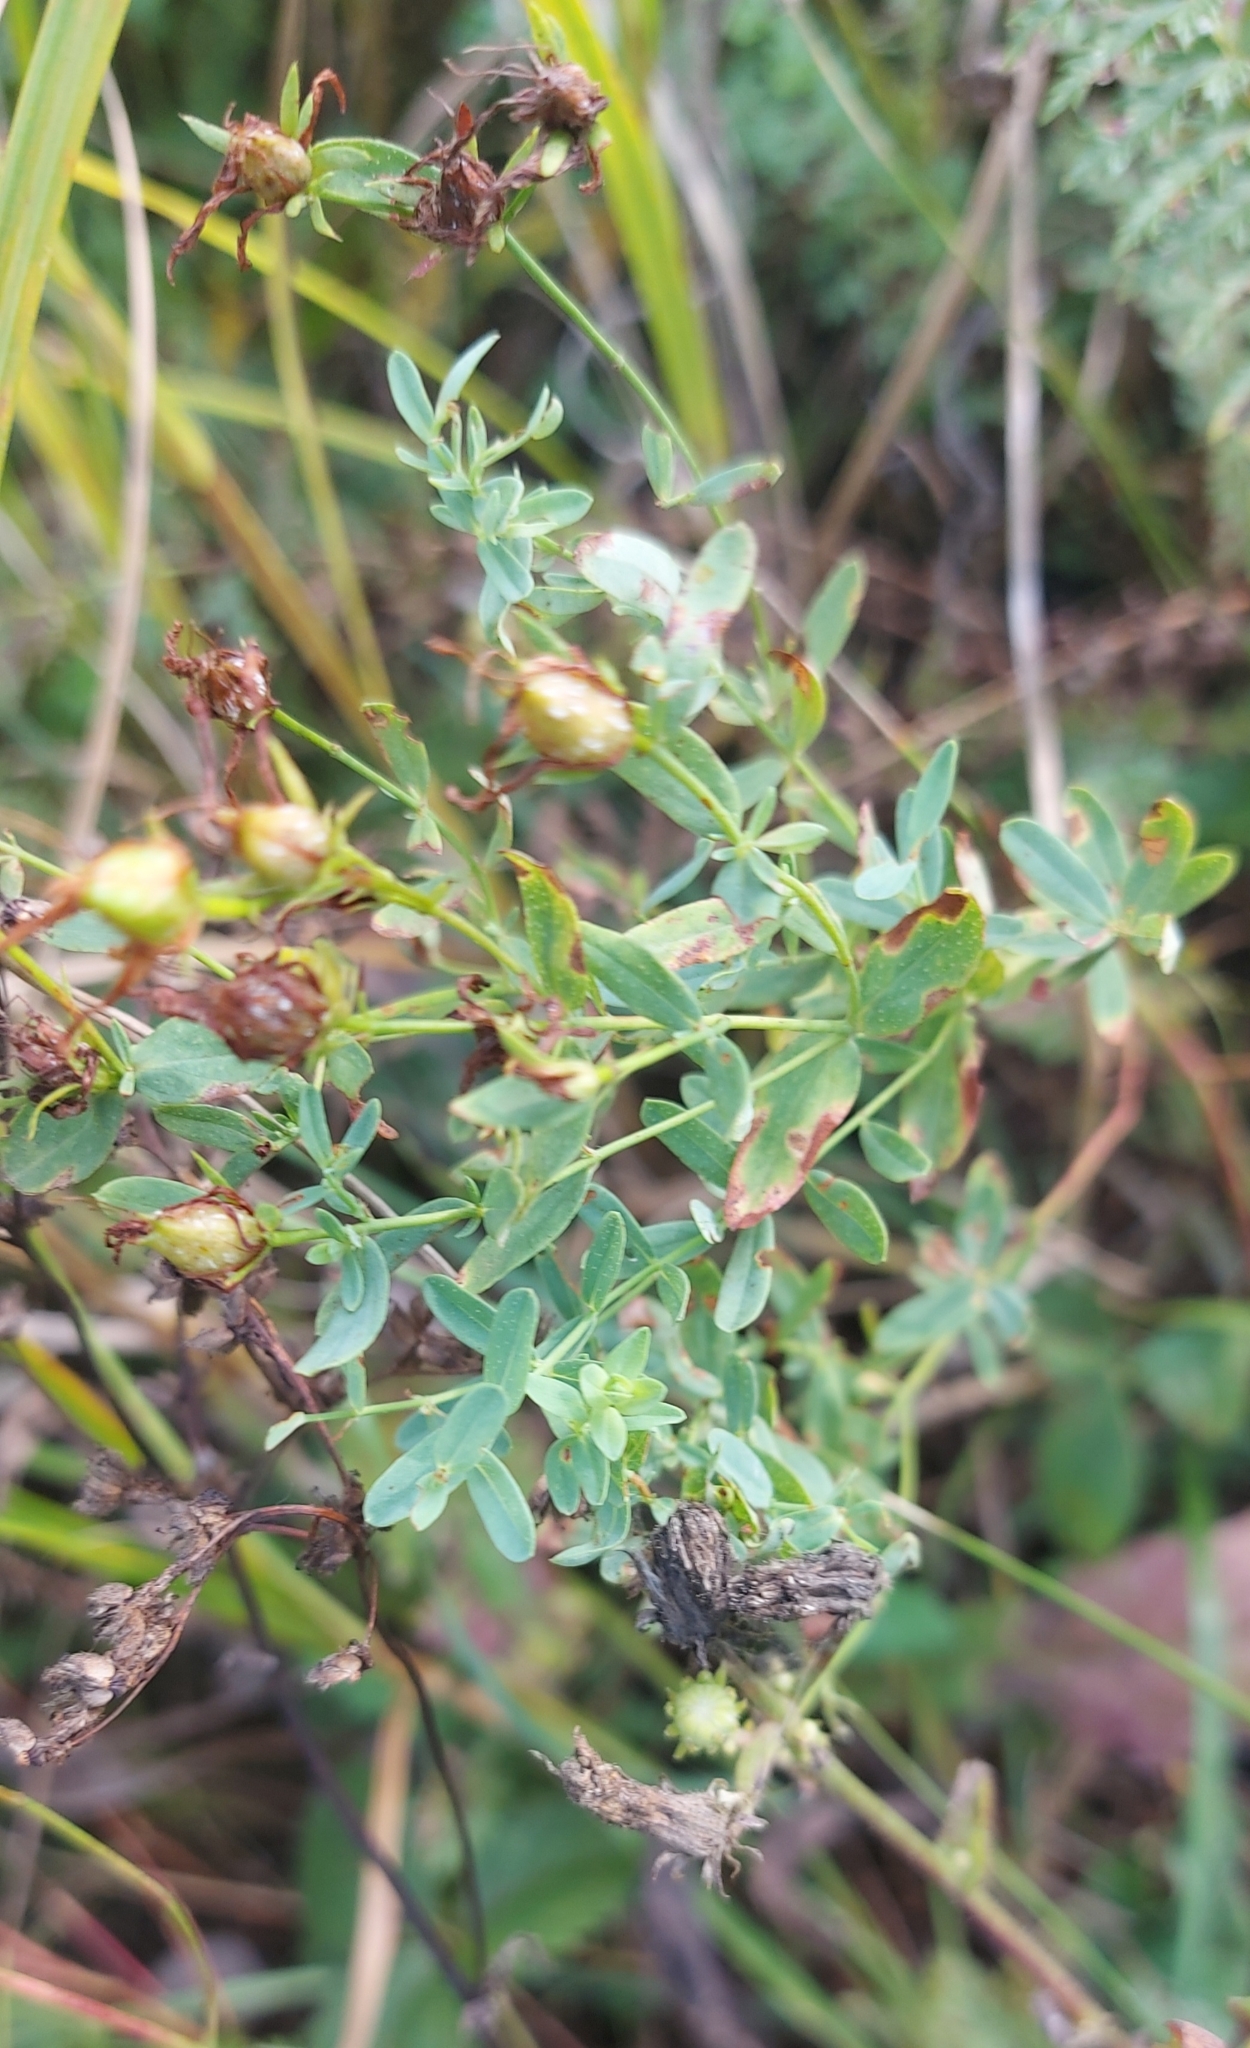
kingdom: Plantae
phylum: Tracheophyta
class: Magnoliopsida
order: Malpighiales
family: Hypericaceae
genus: Hypericum
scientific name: Hypericum perforatum
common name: Common st. johnswort
